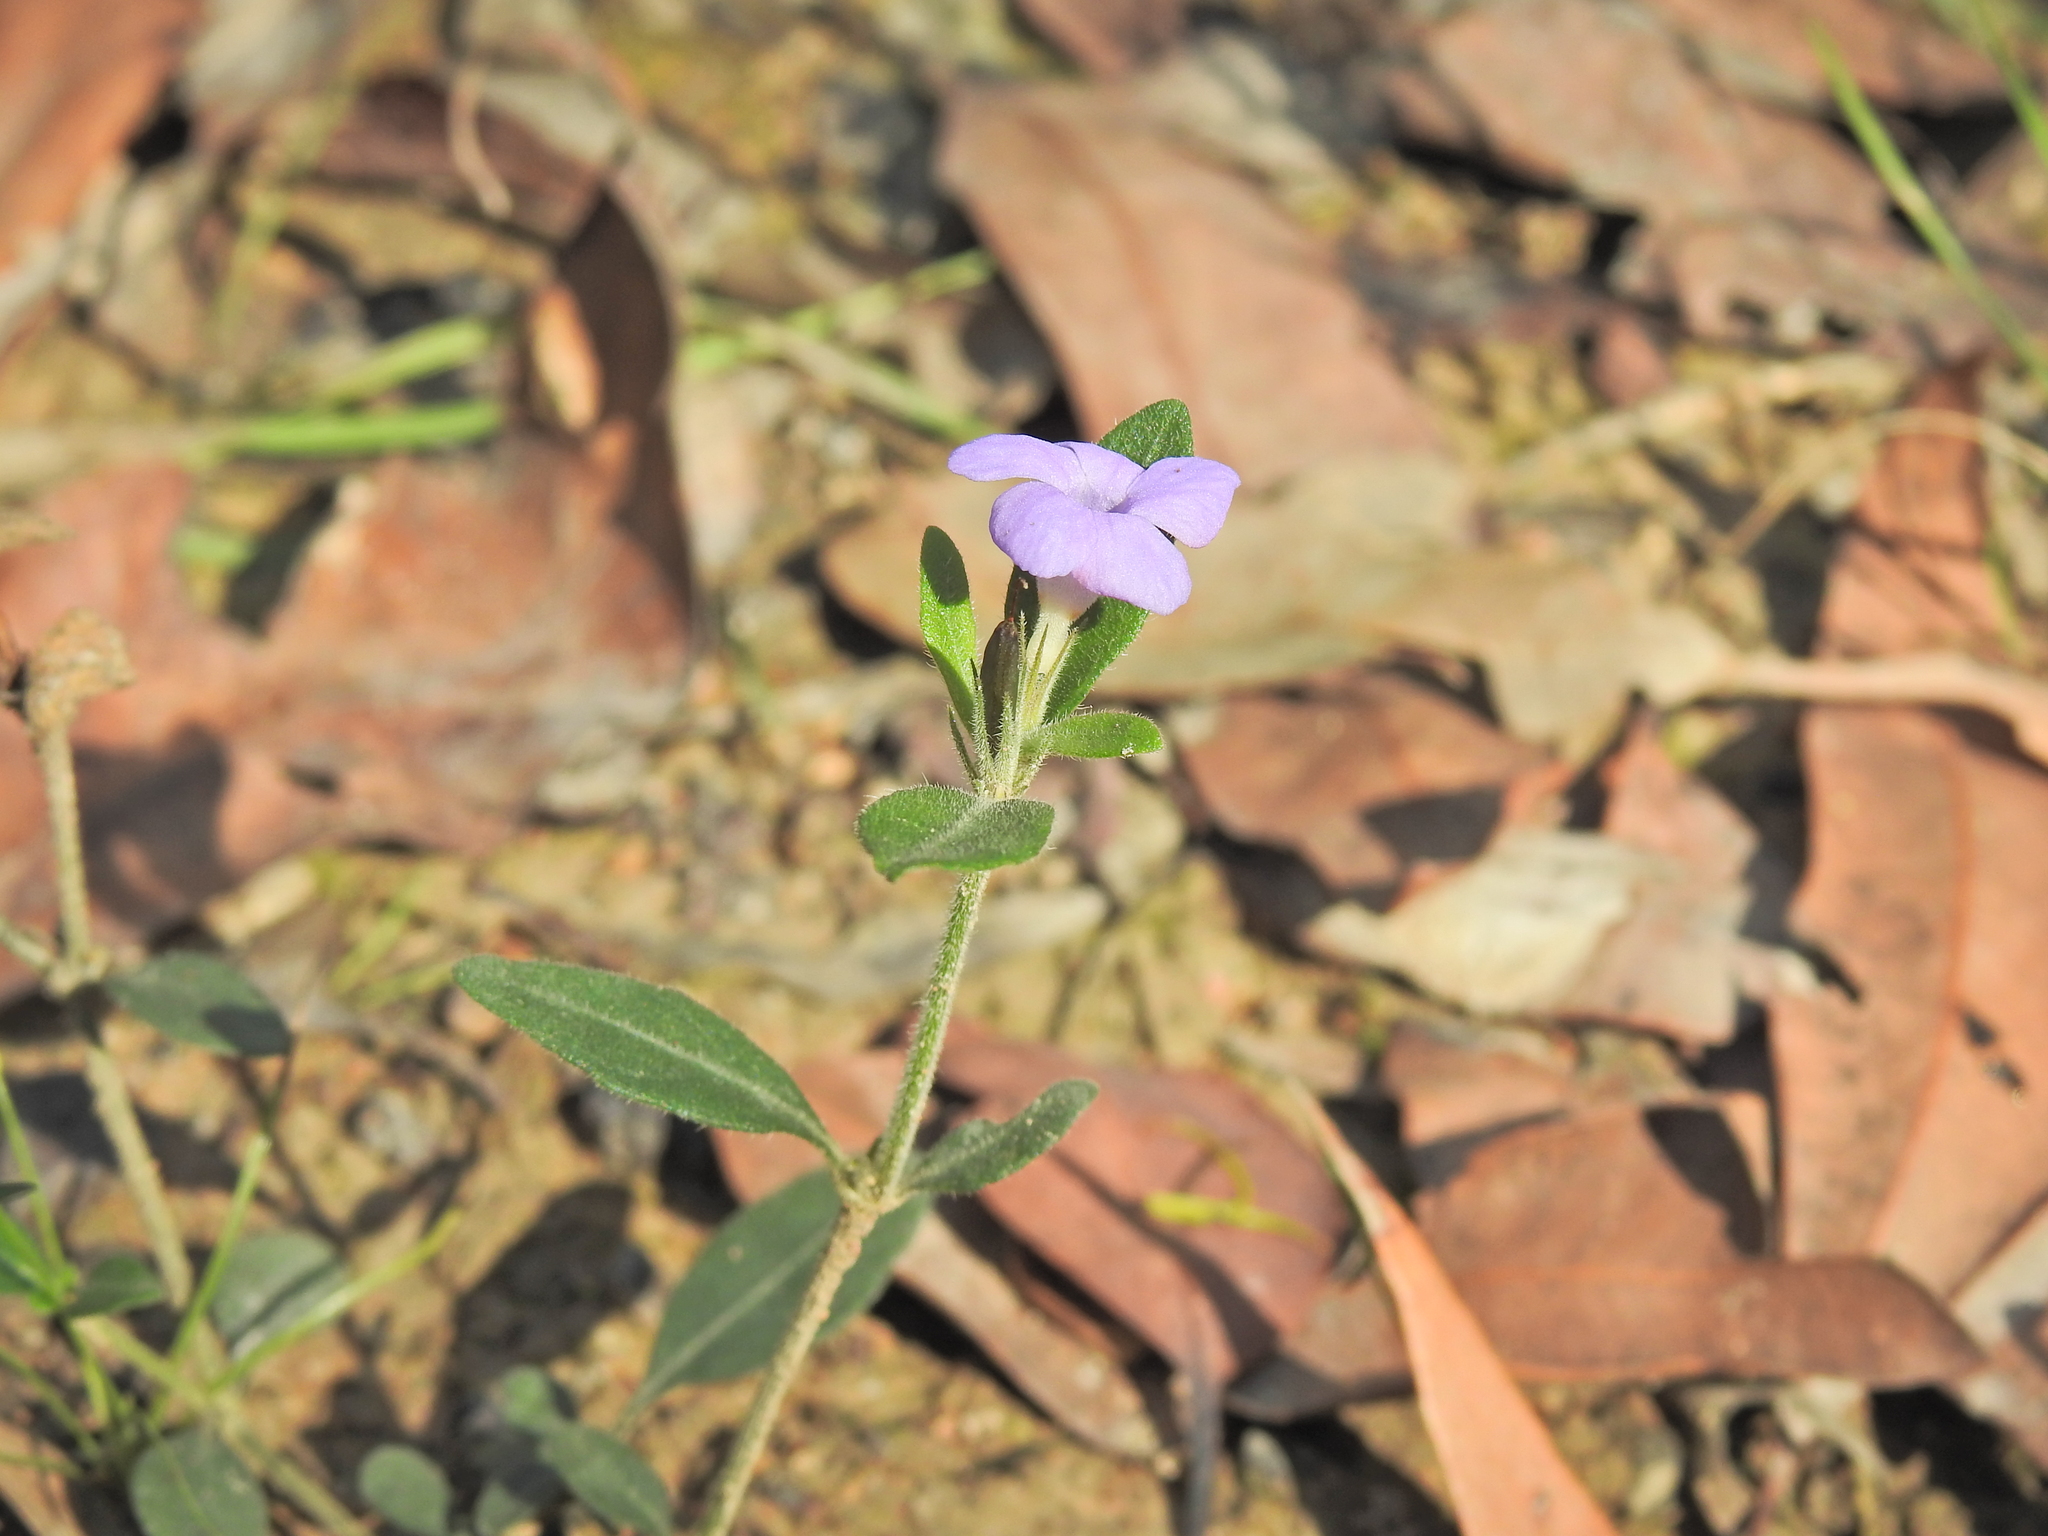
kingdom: Plantae
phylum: Tracheophyta
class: Magnoliopsida
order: Lamiales
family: Acanthaceae
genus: Brunoniella
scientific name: Brunoniella australis
